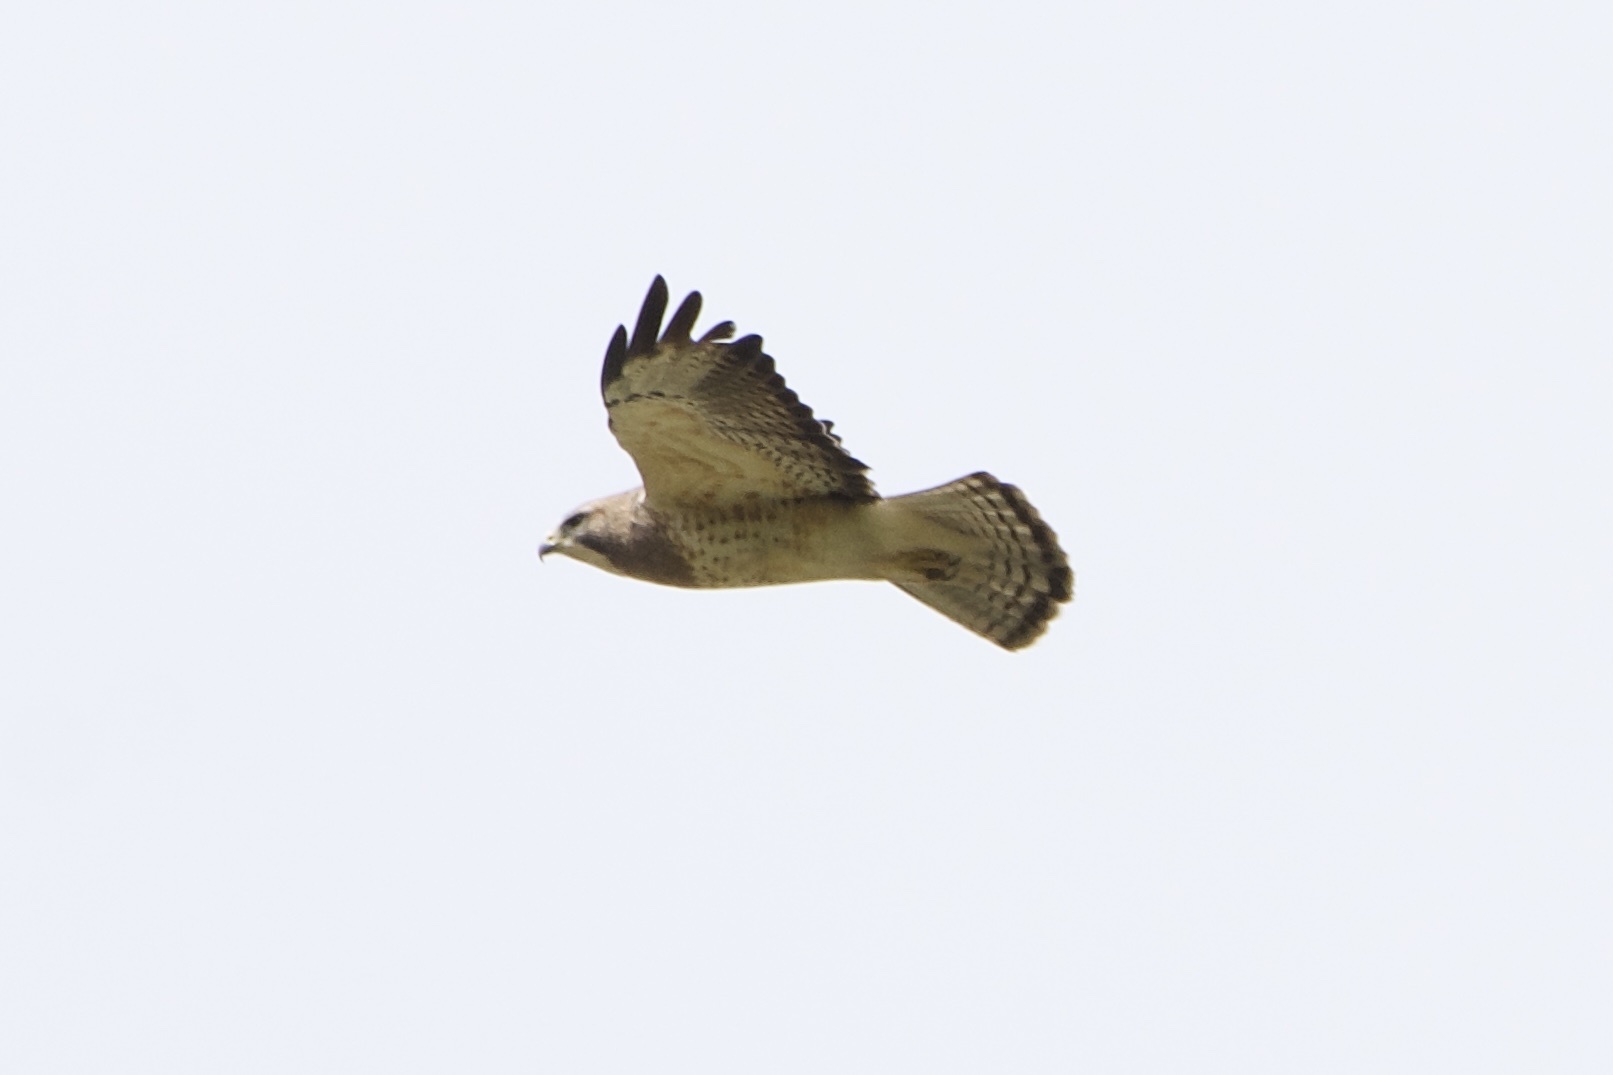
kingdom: Animalia
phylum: Chordata
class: Aves
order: Accipitriformes
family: Accipitridae
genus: Buteo
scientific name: Buteo swainsoni
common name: Swainson's hawk
